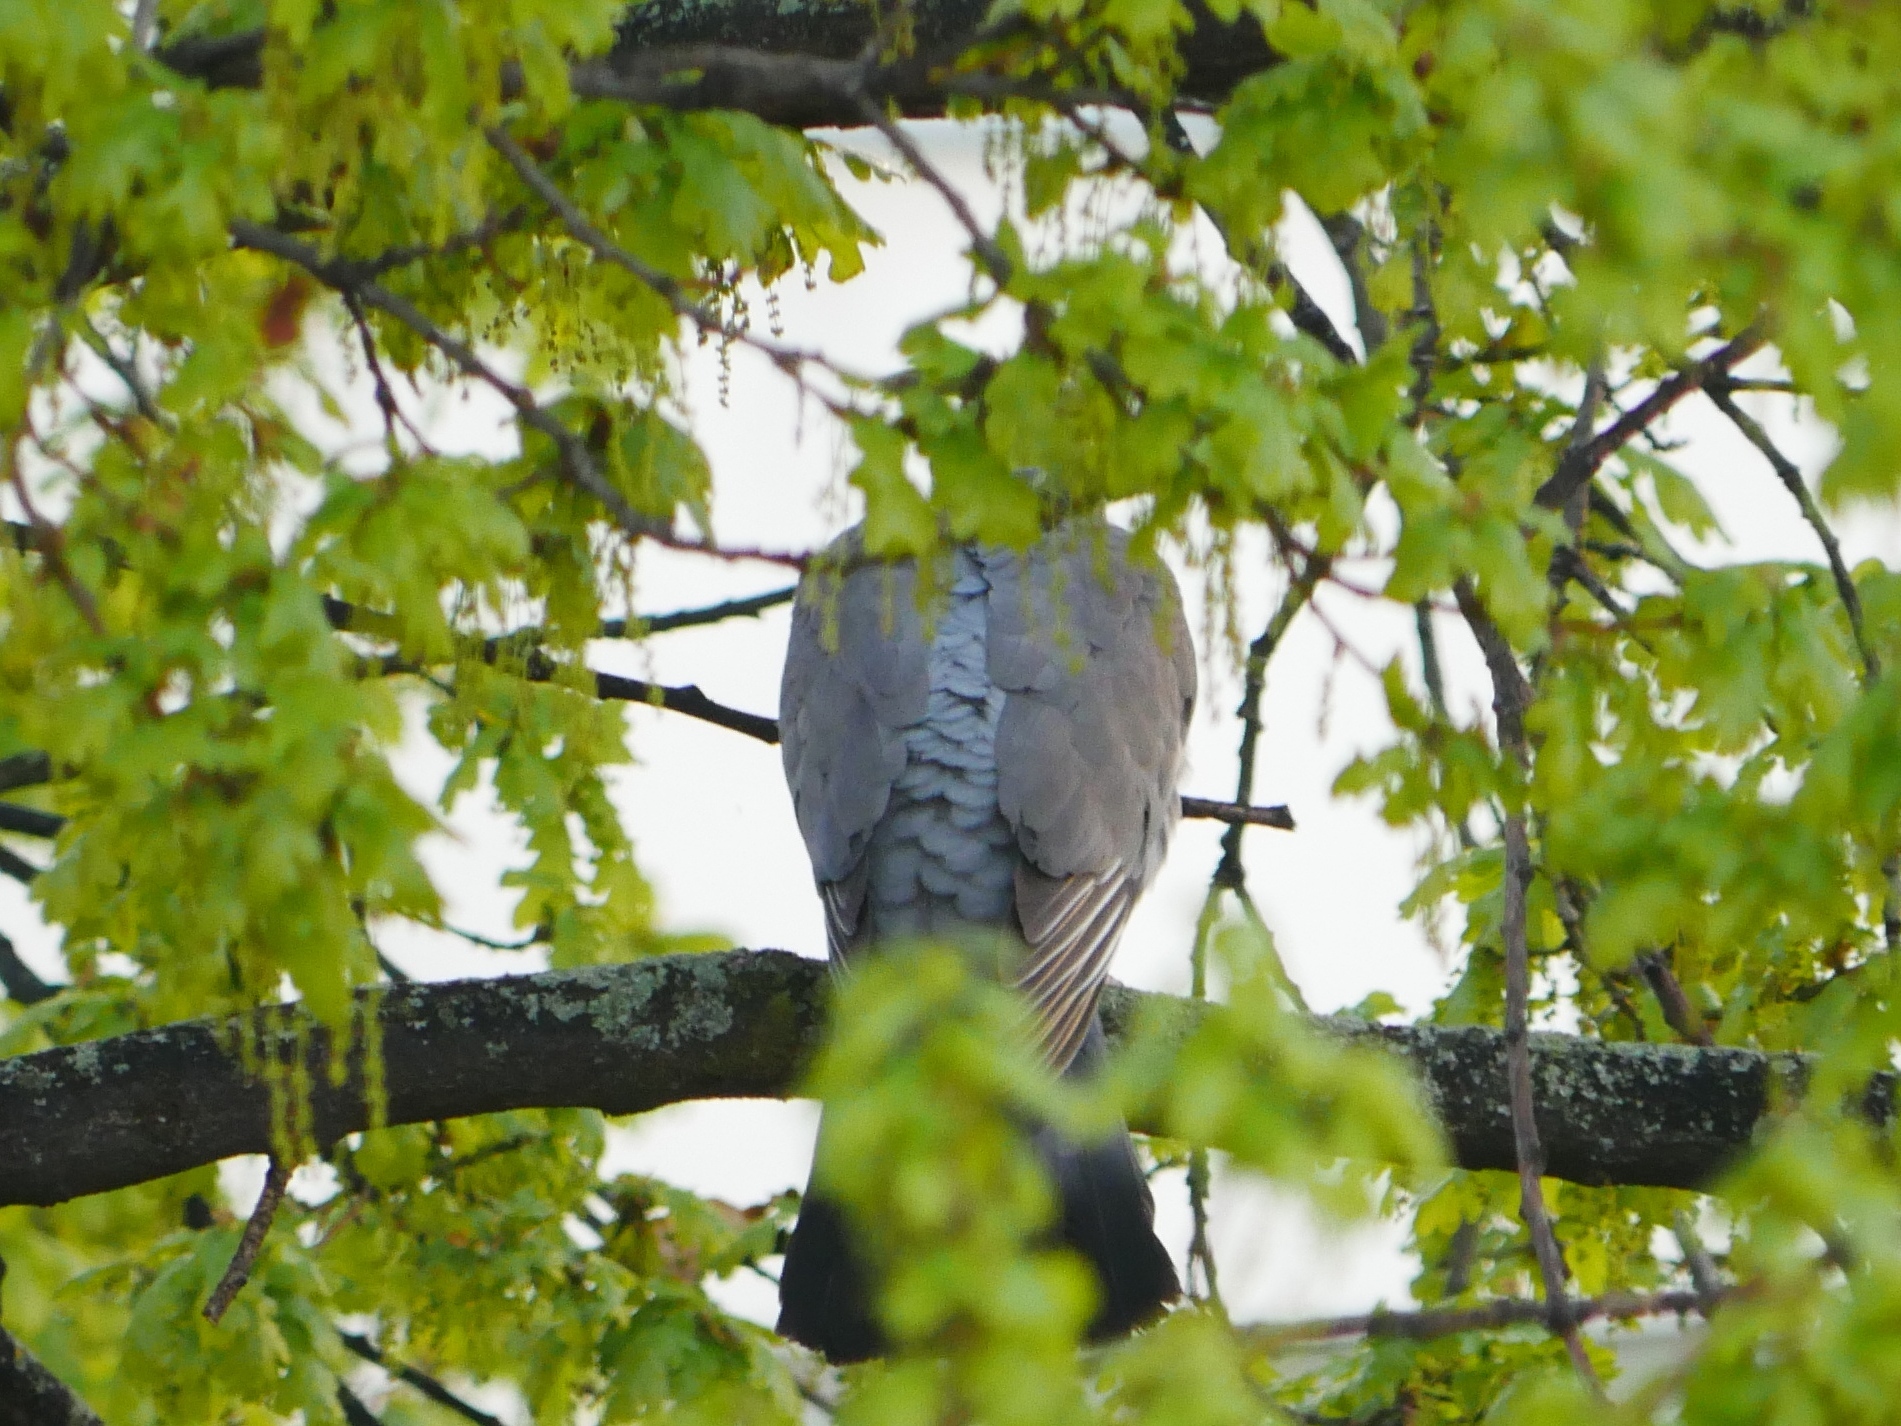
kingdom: Animalia
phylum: Chordata
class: Aves
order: Columbiformes
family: Columbidae
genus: Columba
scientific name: Columba palumbus
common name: Common wood pigeon
